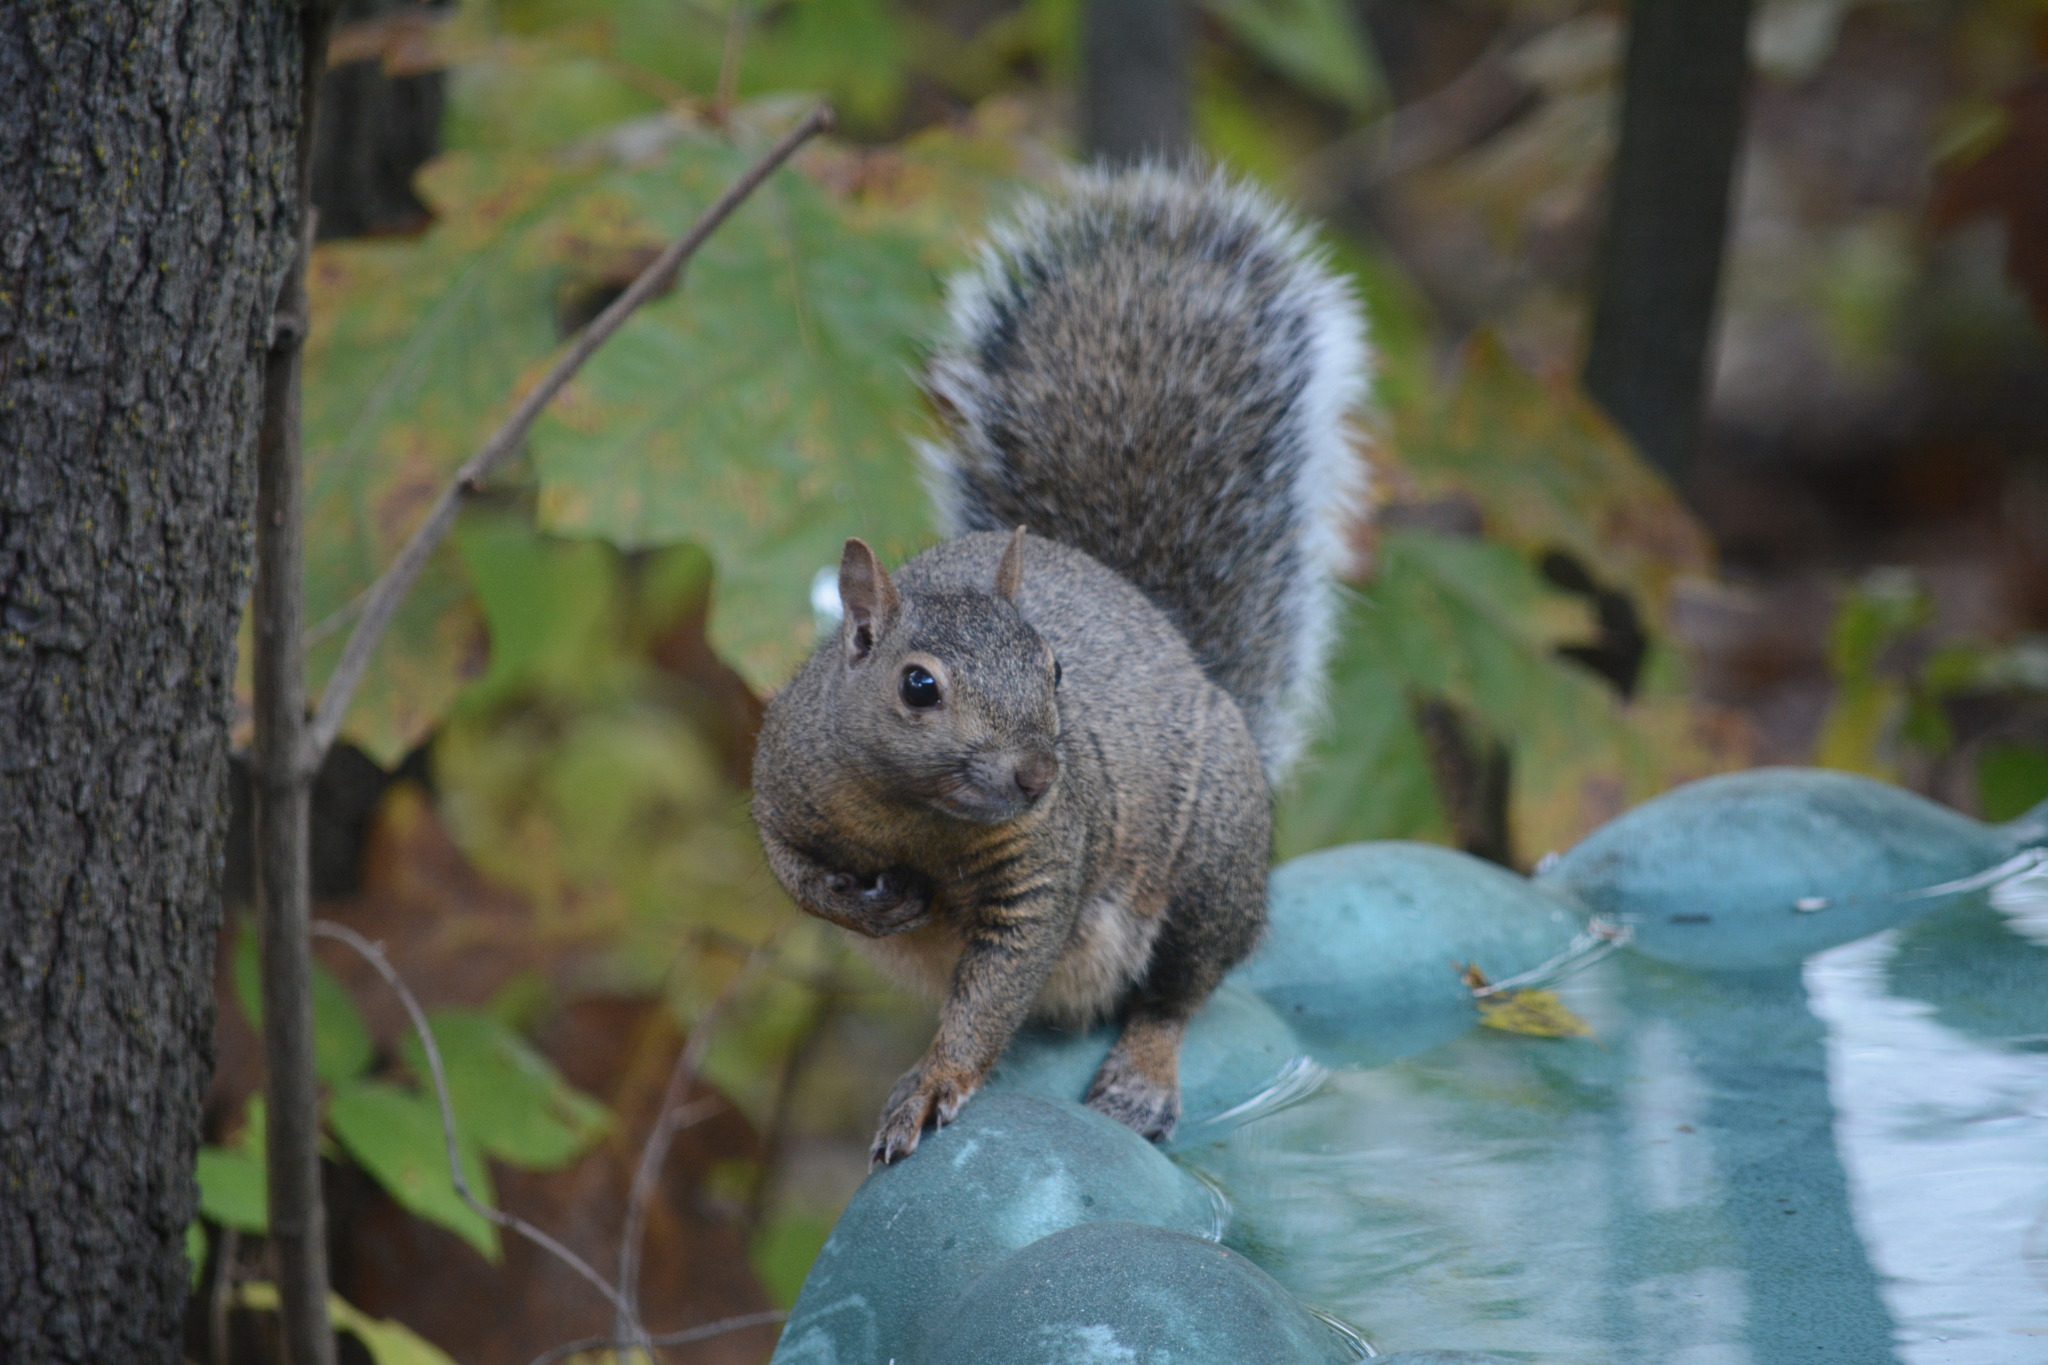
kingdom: Animalia
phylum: Chordata
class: Mammalia
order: Rodentia
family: Sciuridae
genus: Sciurus
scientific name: Sciurus carolinensis
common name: Eastern gray squirrel
